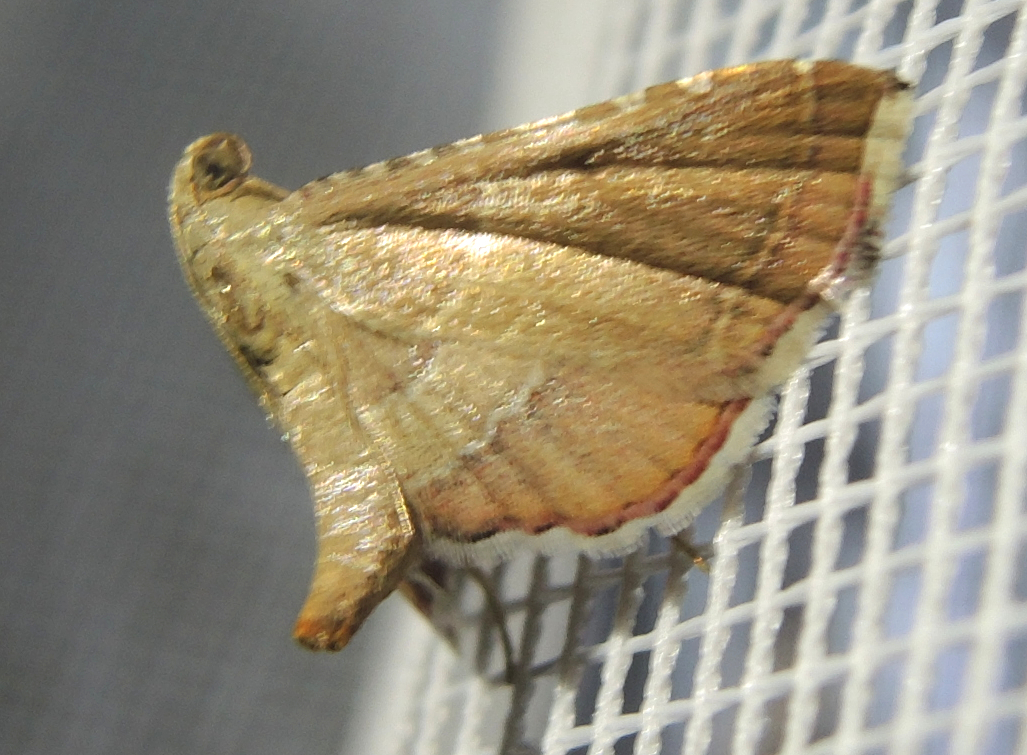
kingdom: Animalia
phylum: Arthropoda
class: Insecta
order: Lepidoptera
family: Pyralidae
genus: Endotricha
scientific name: Endotricha flammealis
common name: Rosy tabby
